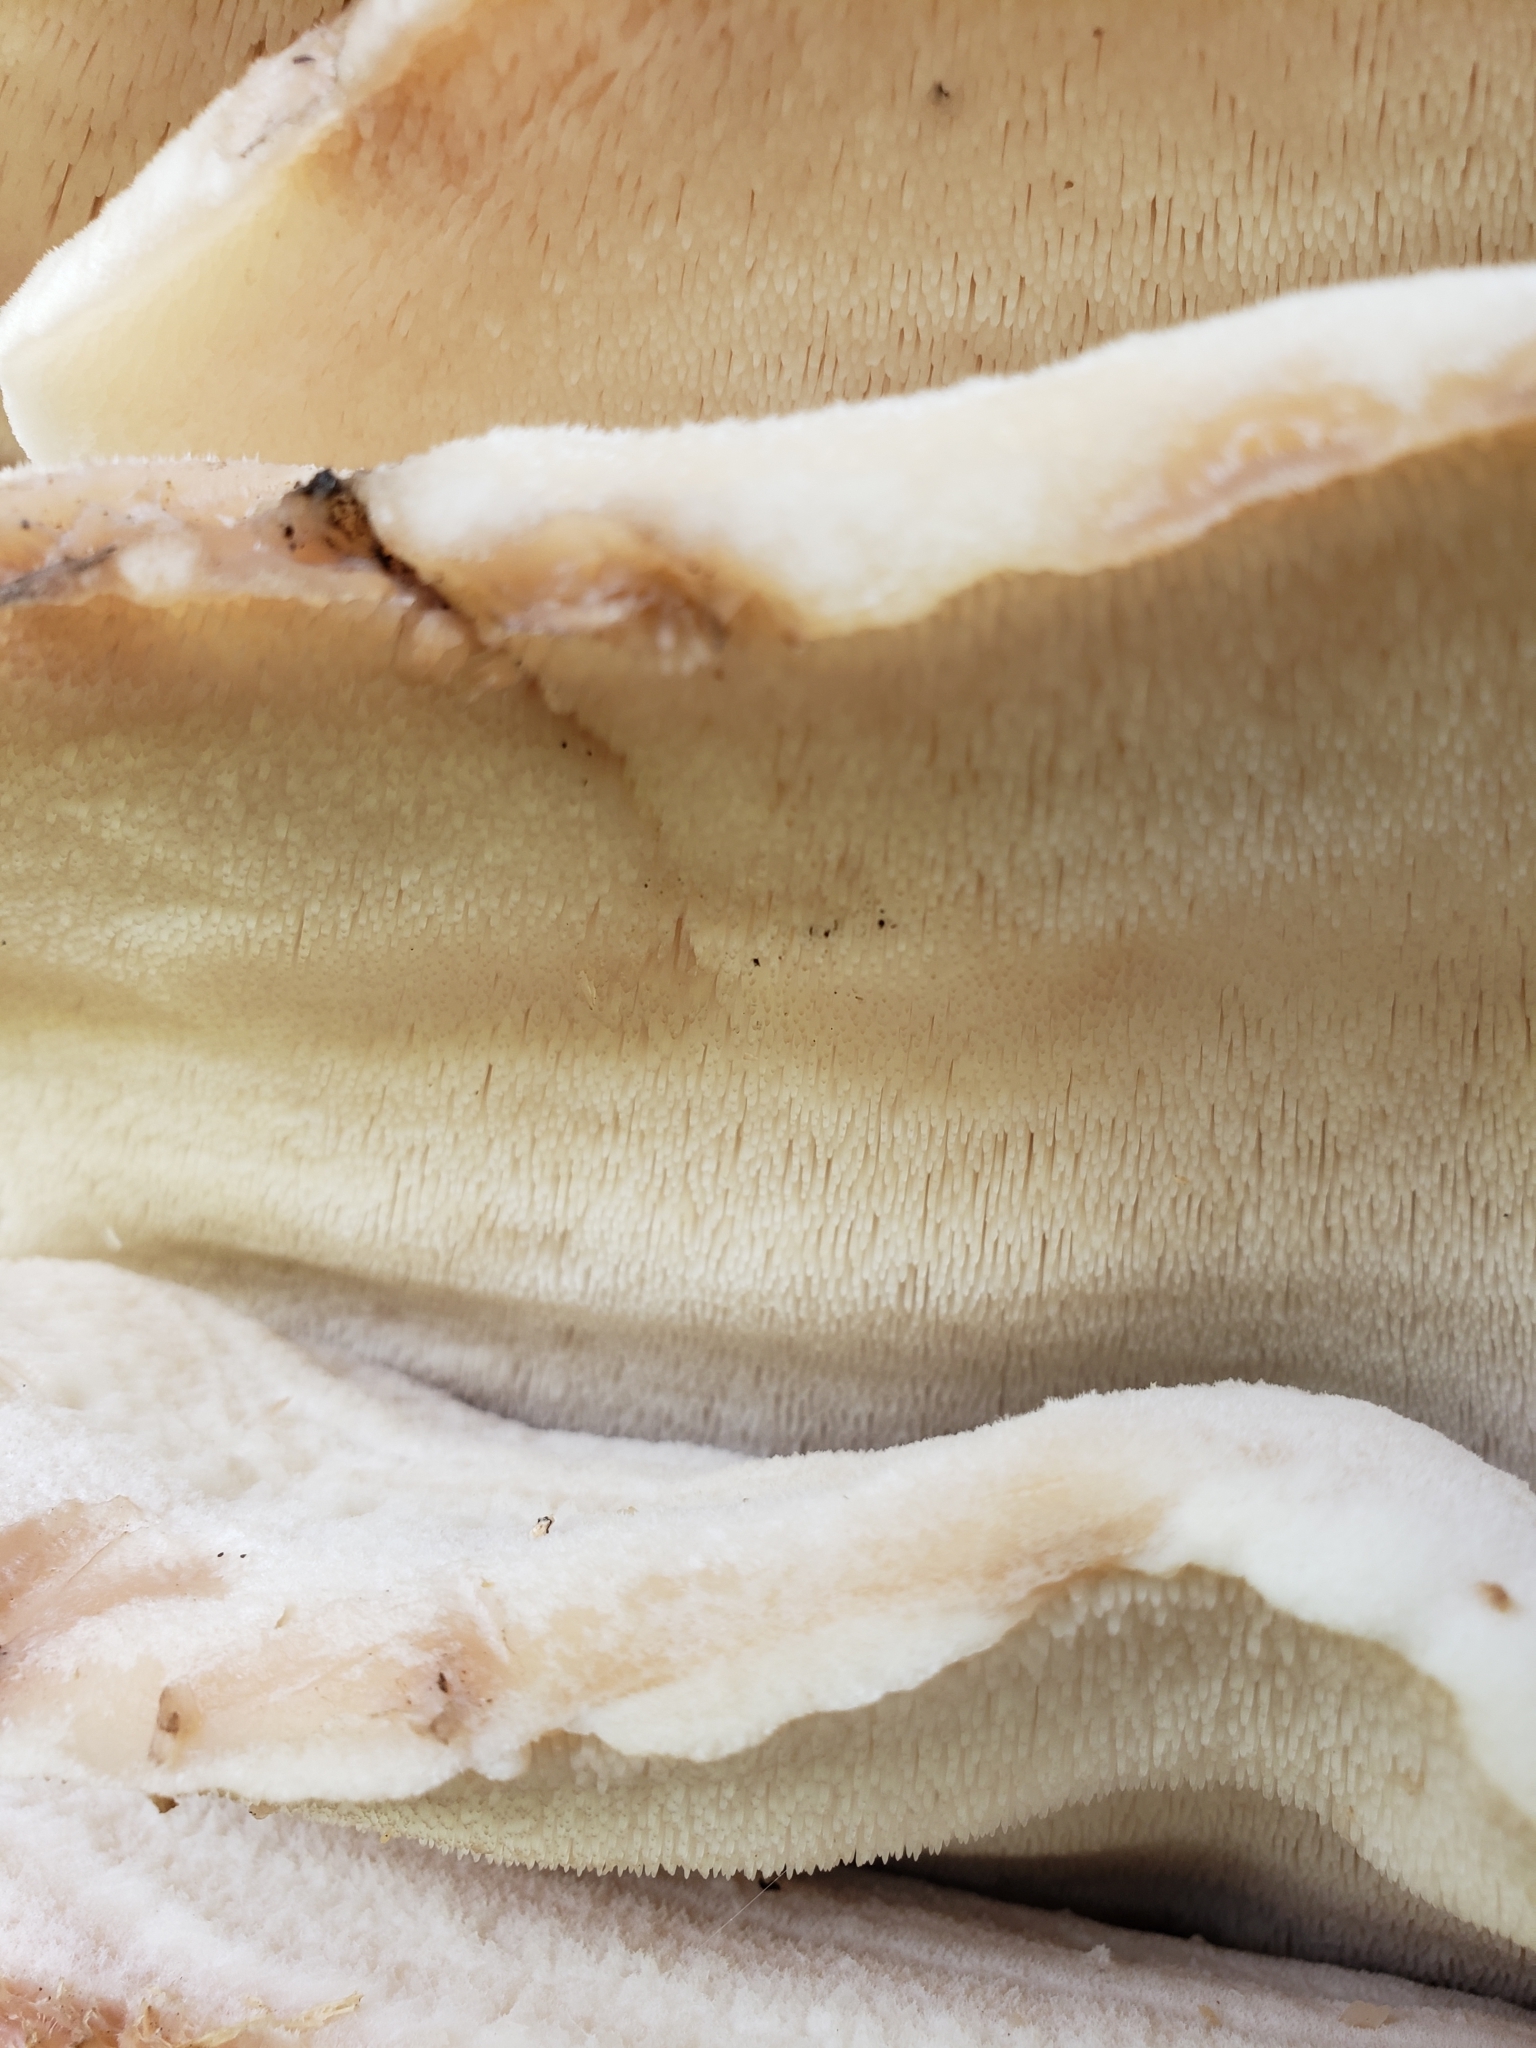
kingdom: Fungi
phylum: Basidiomycota
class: Agaricomycetes
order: Polyporales
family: Meruliaceae
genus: Climacodon
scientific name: Climacodon septentrionalis
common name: Northern tooth
